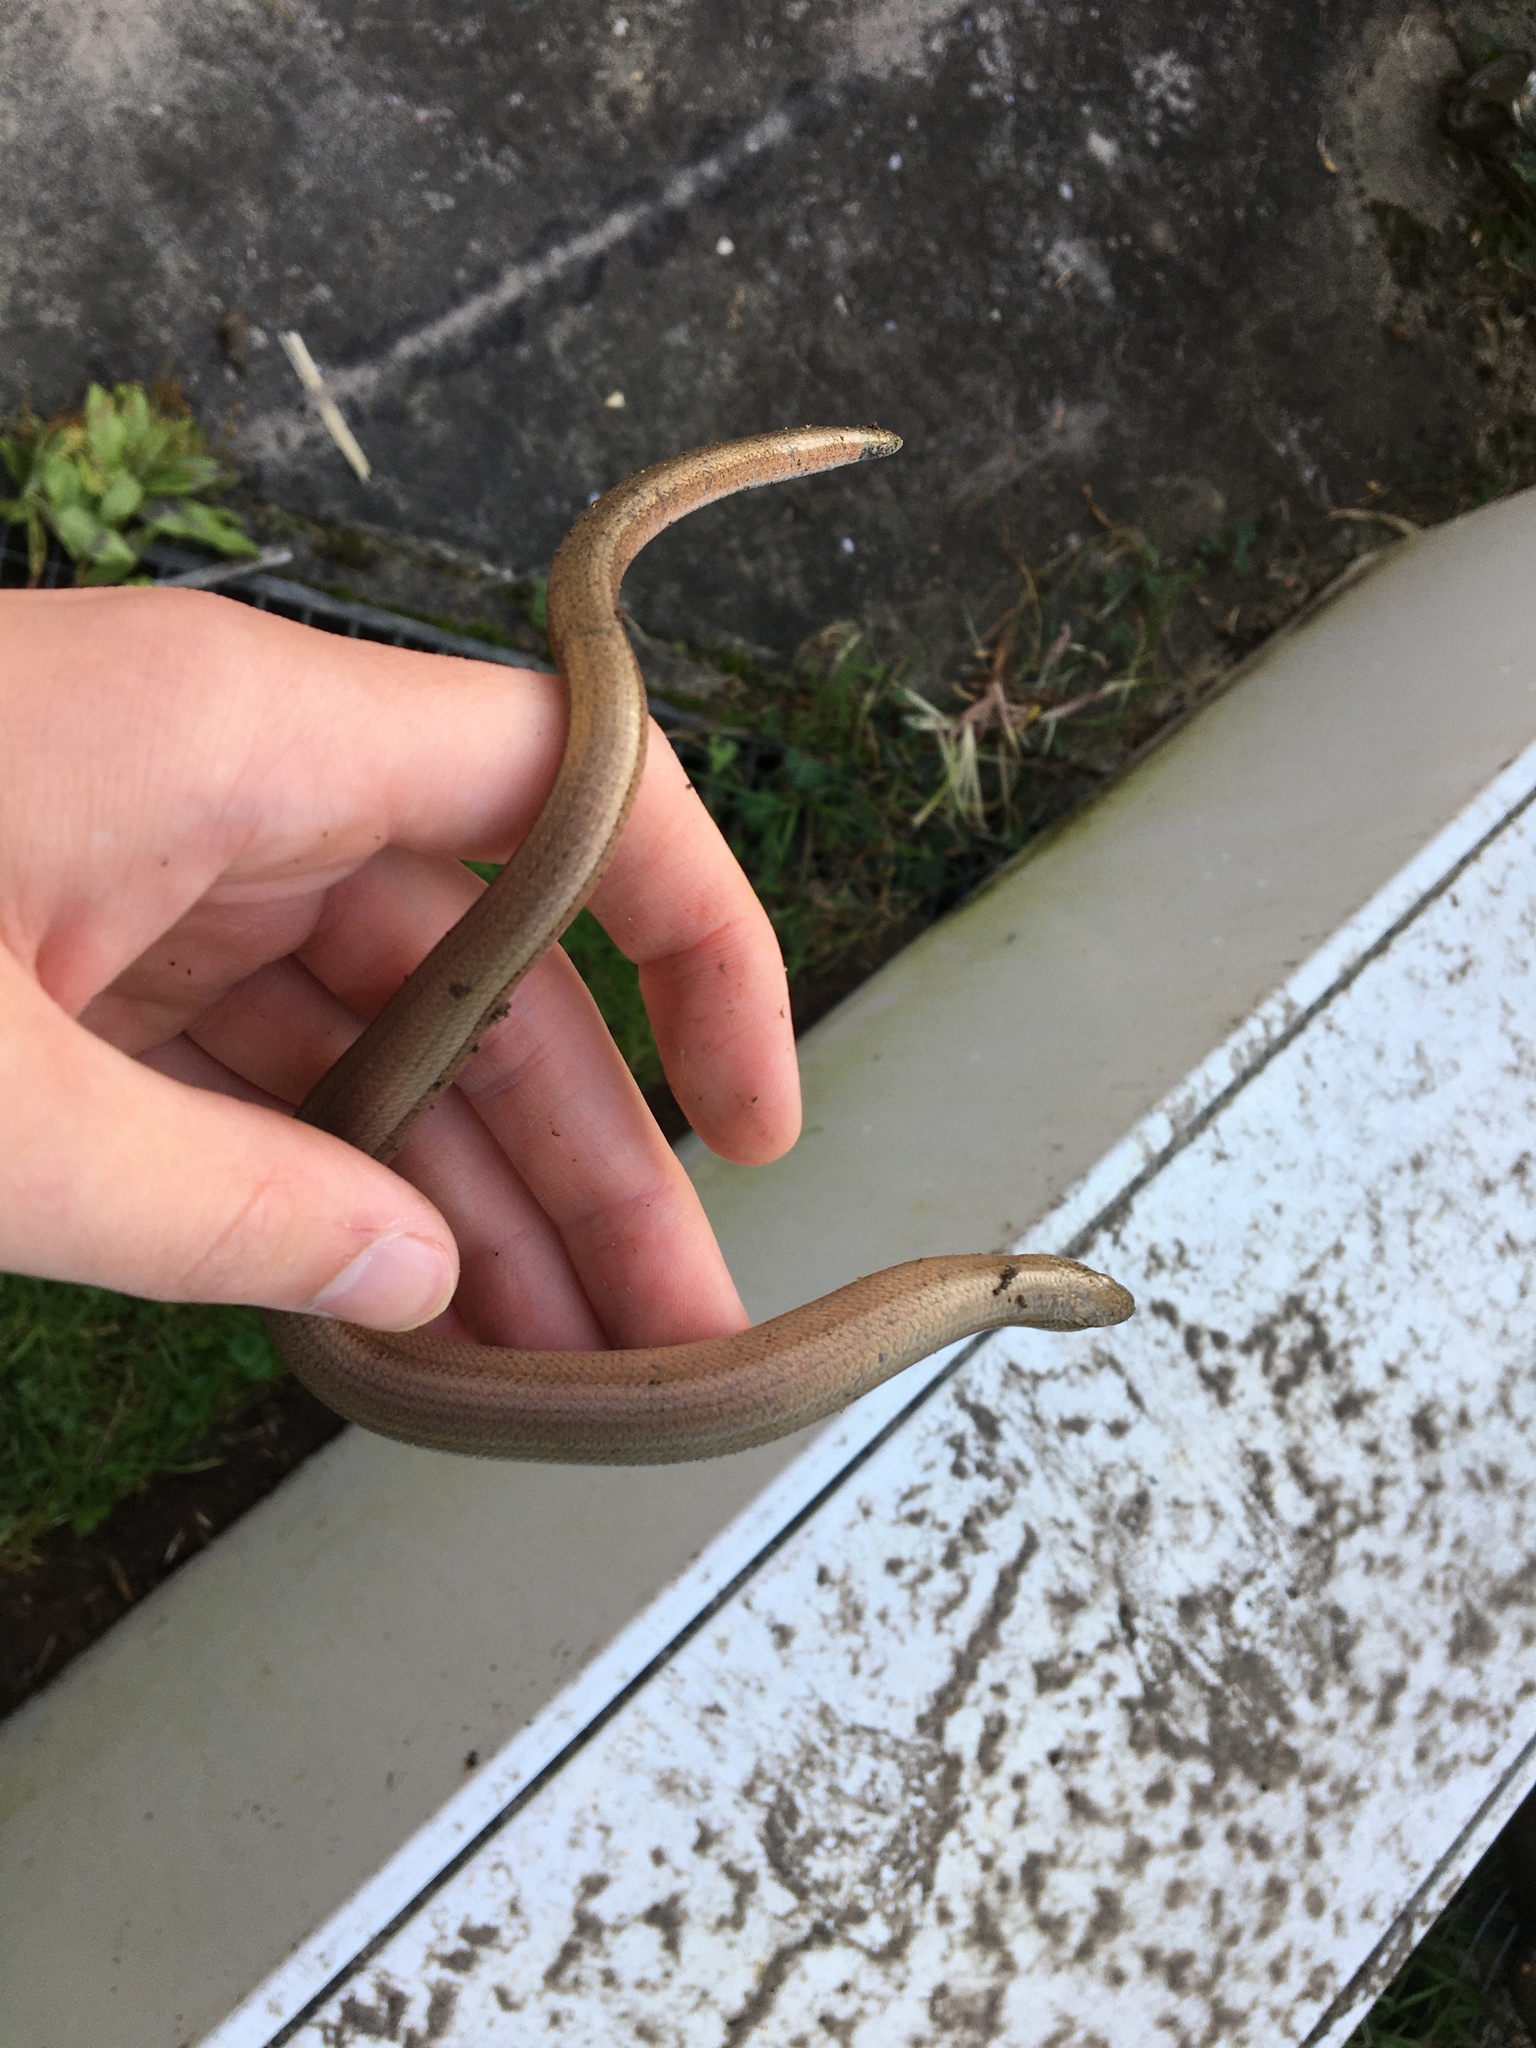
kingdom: Animalia
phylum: Chordata
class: Squamata
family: Anguidae
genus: Anguis
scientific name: Anguis fragilis
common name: Slow worm
